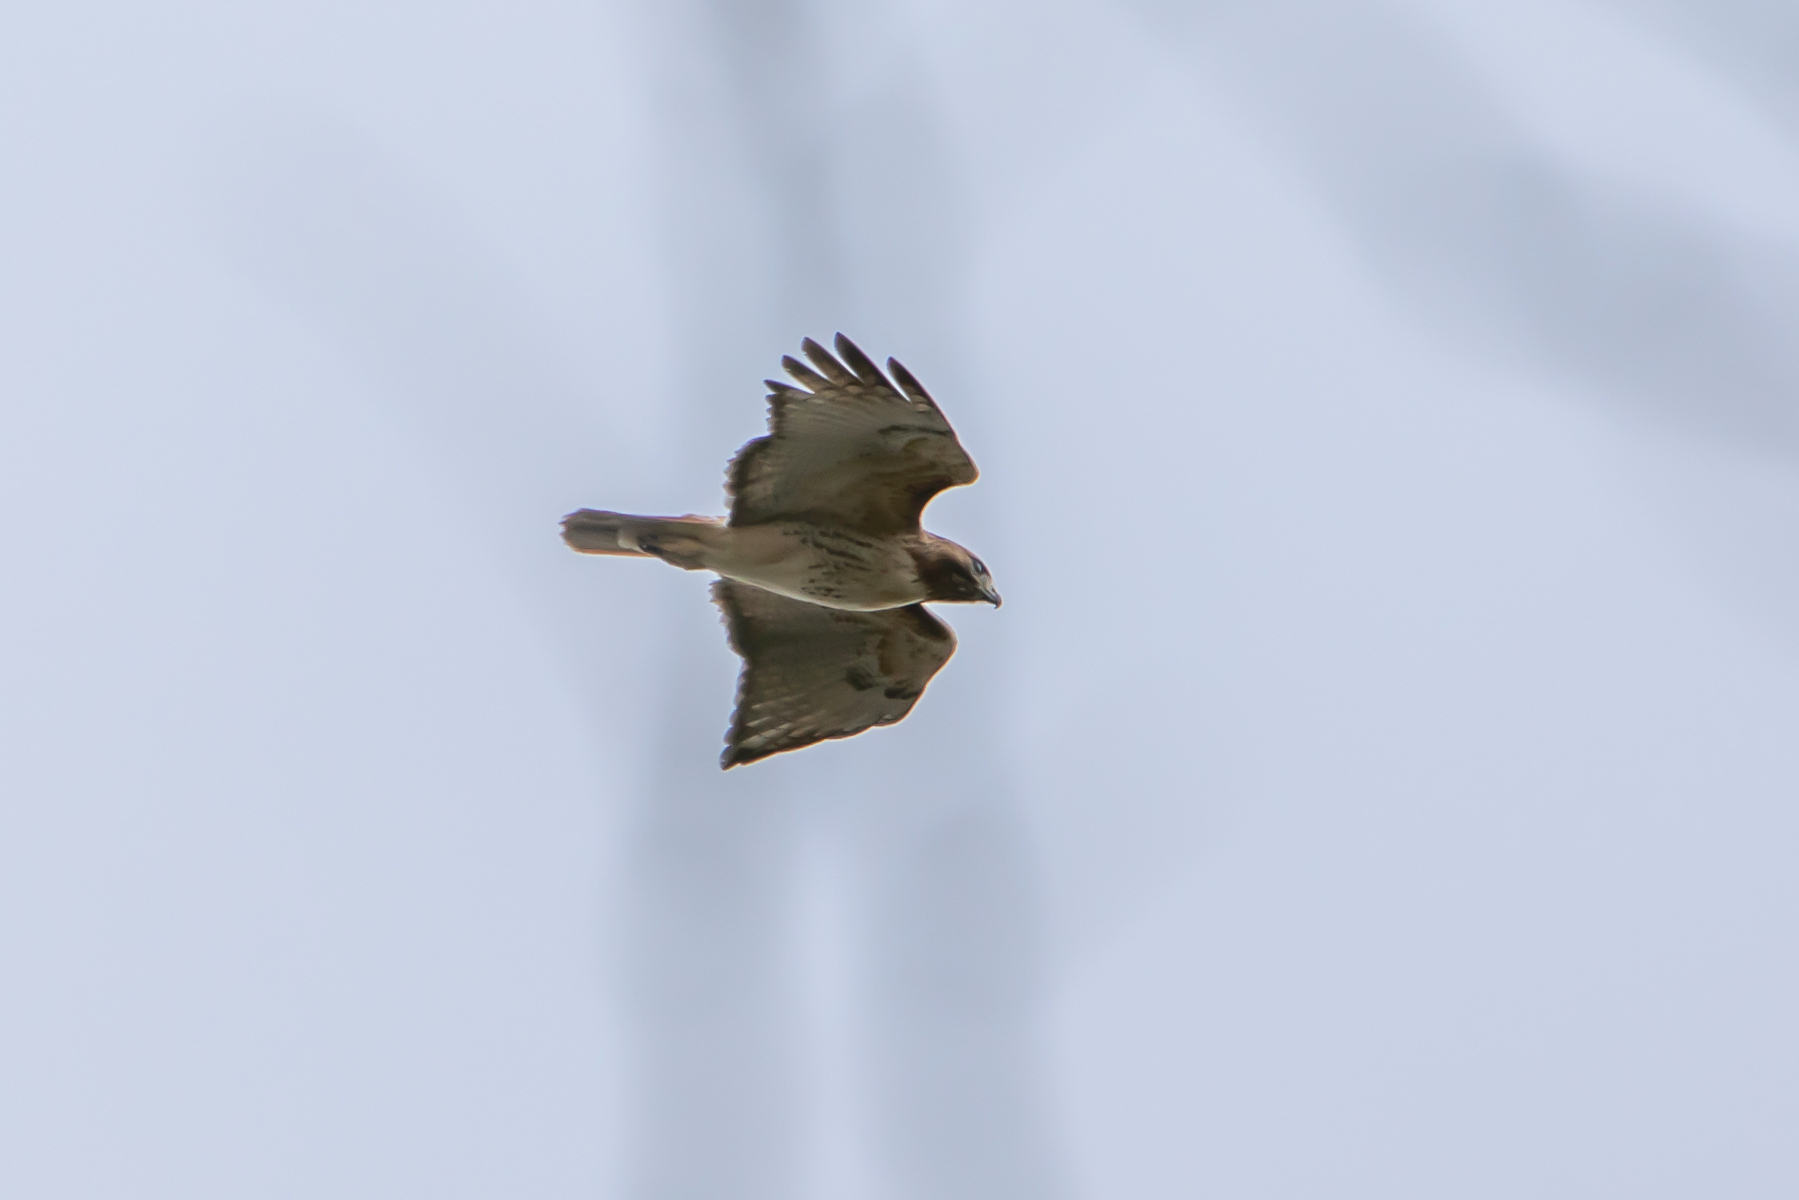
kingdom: Animalia
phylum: Chordata
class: Aves
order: Accipitriformes
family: Accipitridae
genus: Buteo
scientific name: Buteo jamaicensis
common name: Red-tailed hawk
